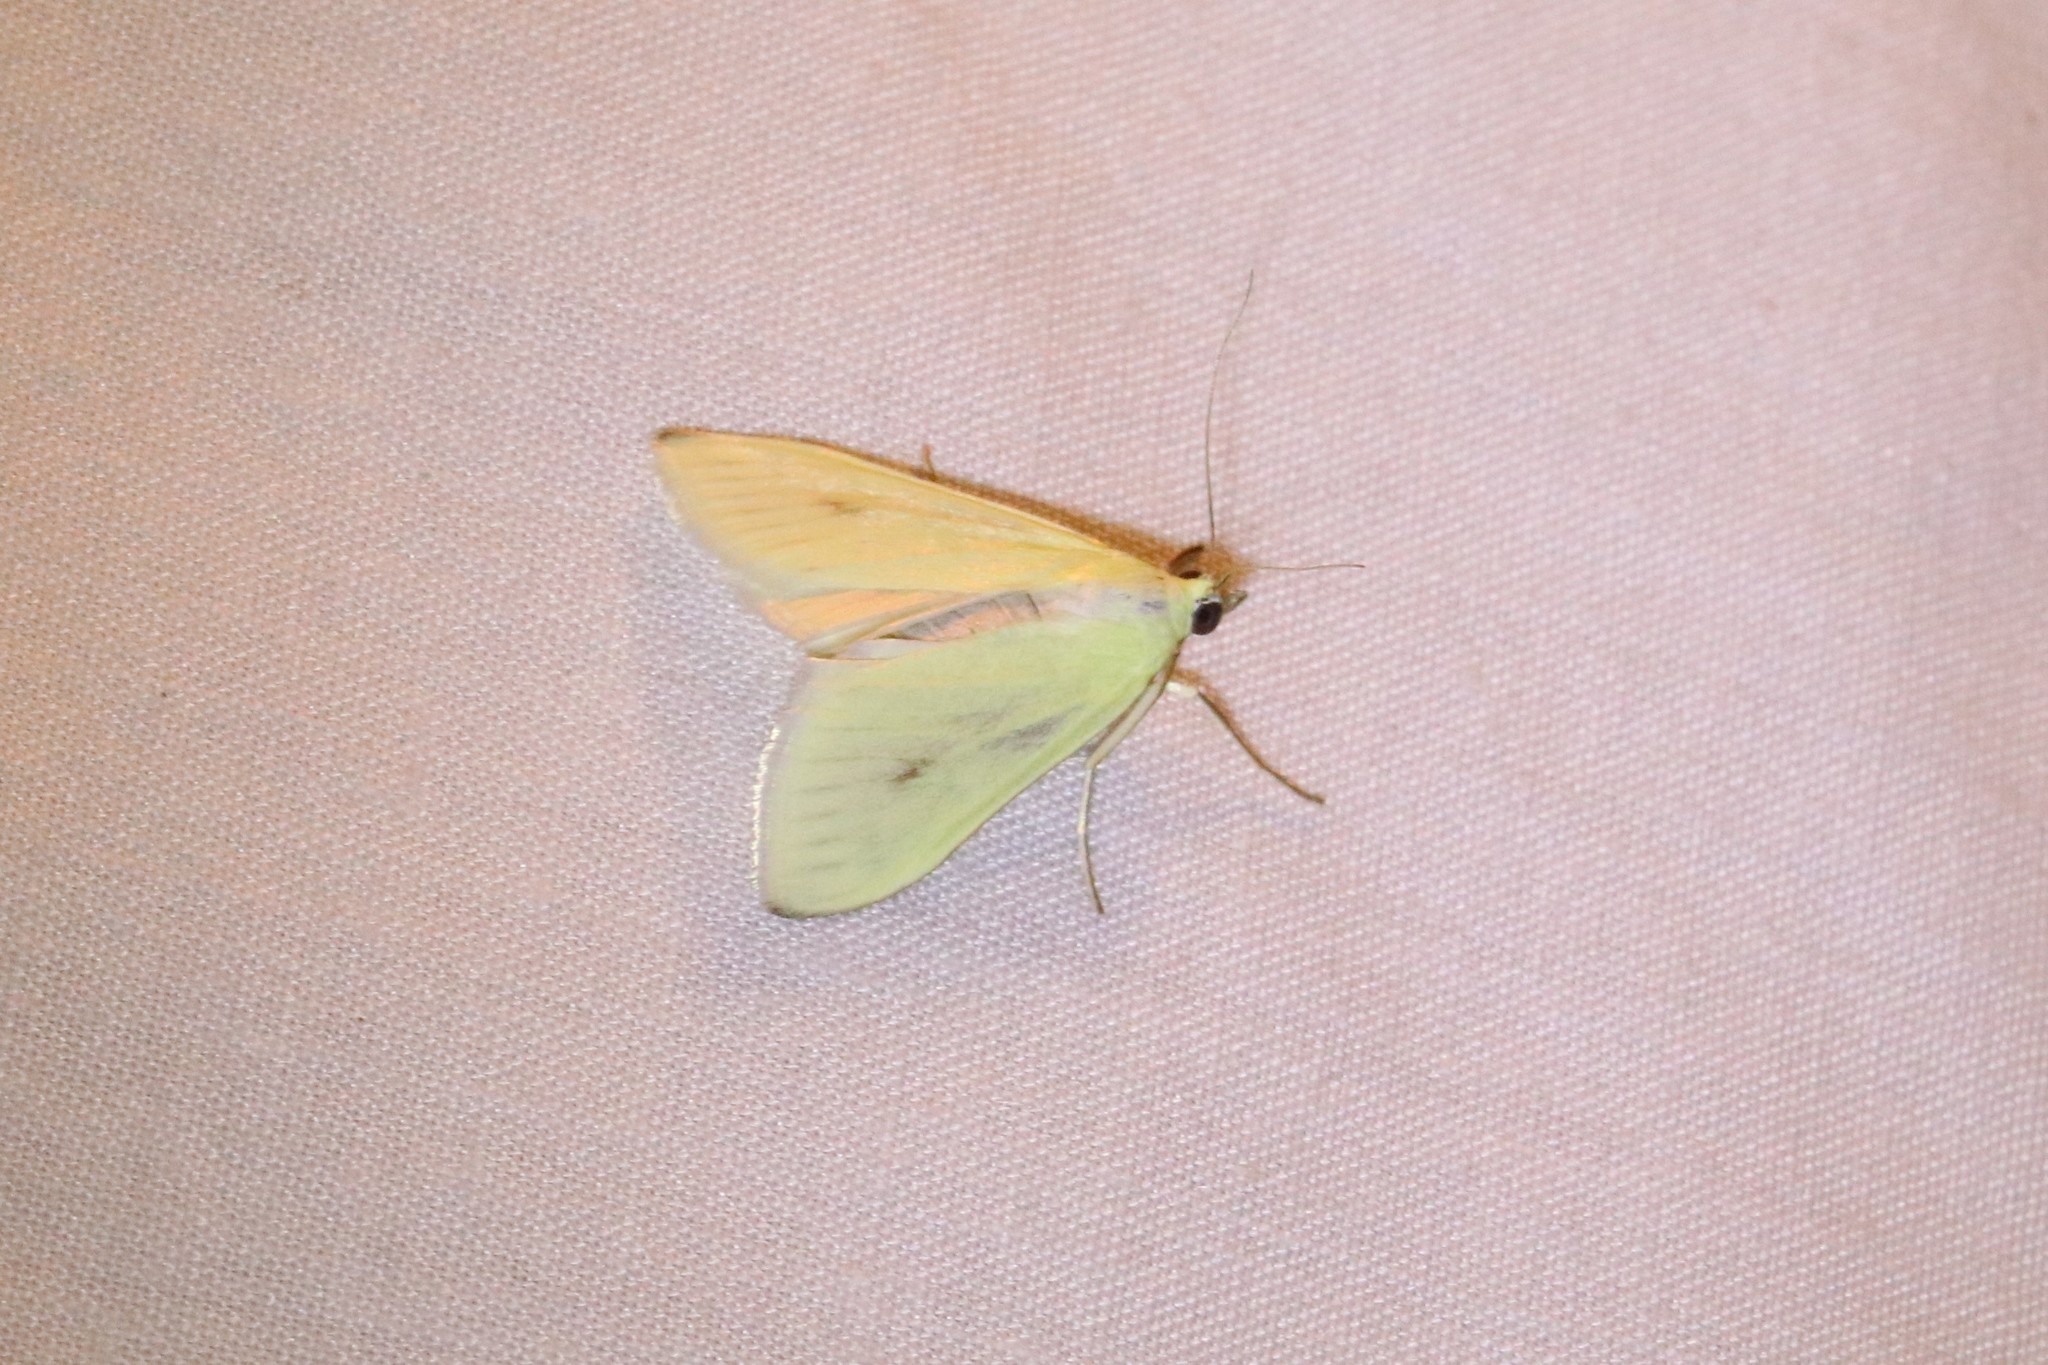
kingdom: Animalia
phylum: Arthropoda
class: Insecta
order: Lepidoptera
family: Crambidae
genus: Sitochroa
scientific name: Sitochroa palealis
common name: Greenish-yellow sitochroa moth
